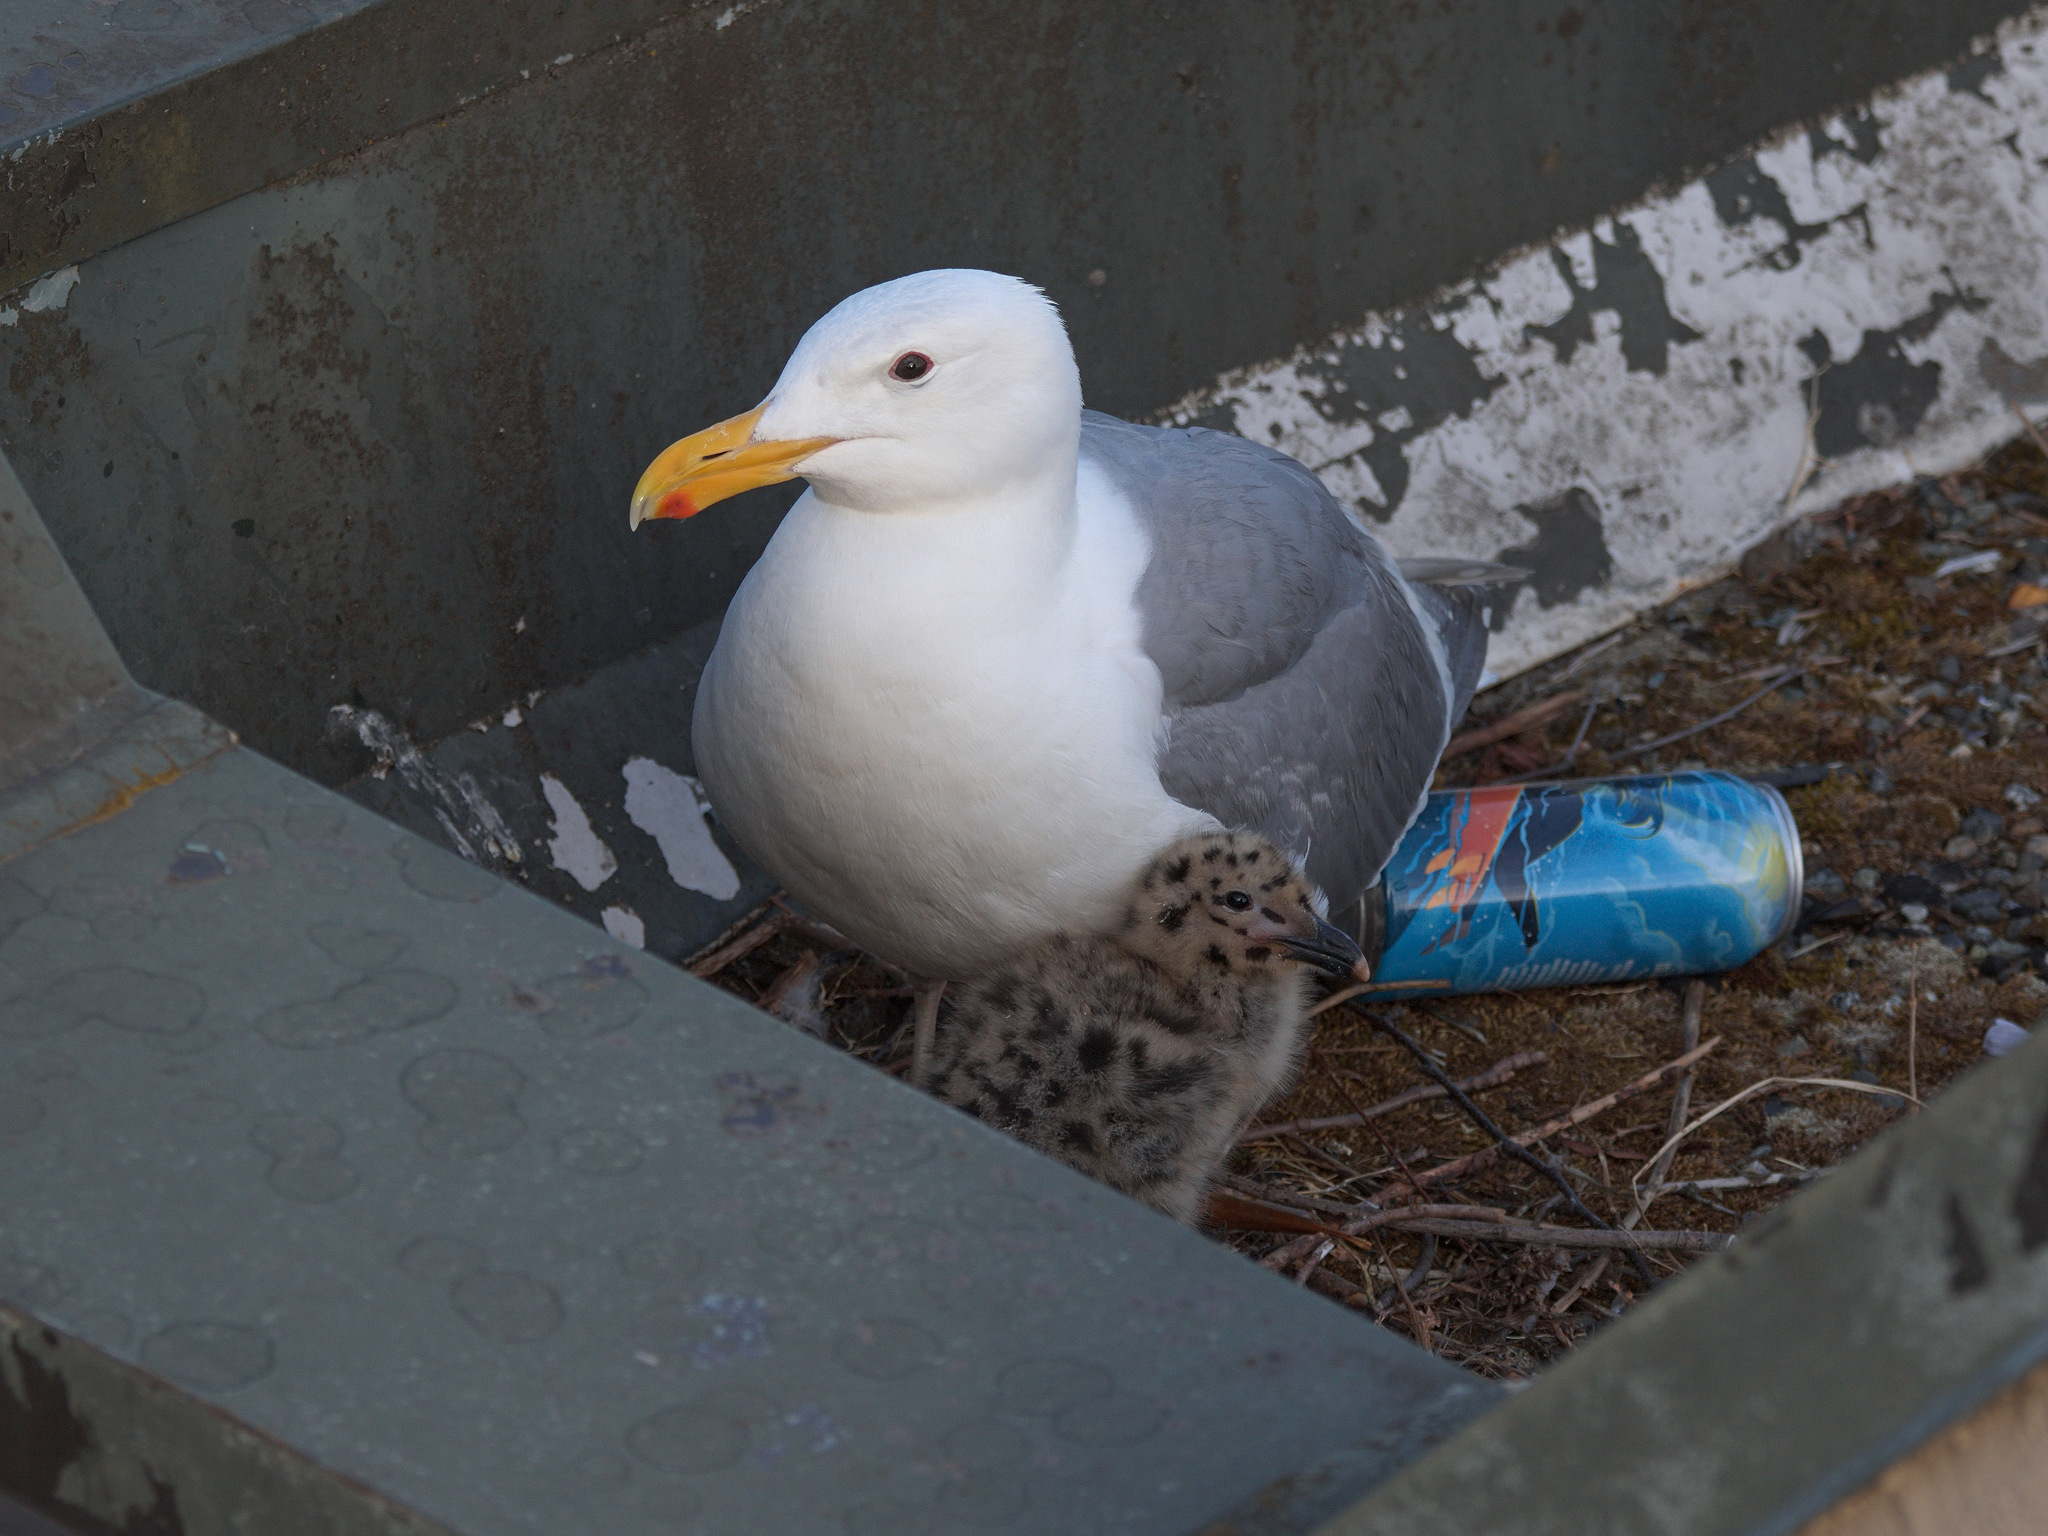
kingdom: Animalia
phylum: Chordata
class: Aves
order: Charadriiformes
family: Laridae
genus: Larus
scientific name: Larus glaucescens
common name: Glaucous-winged gull
